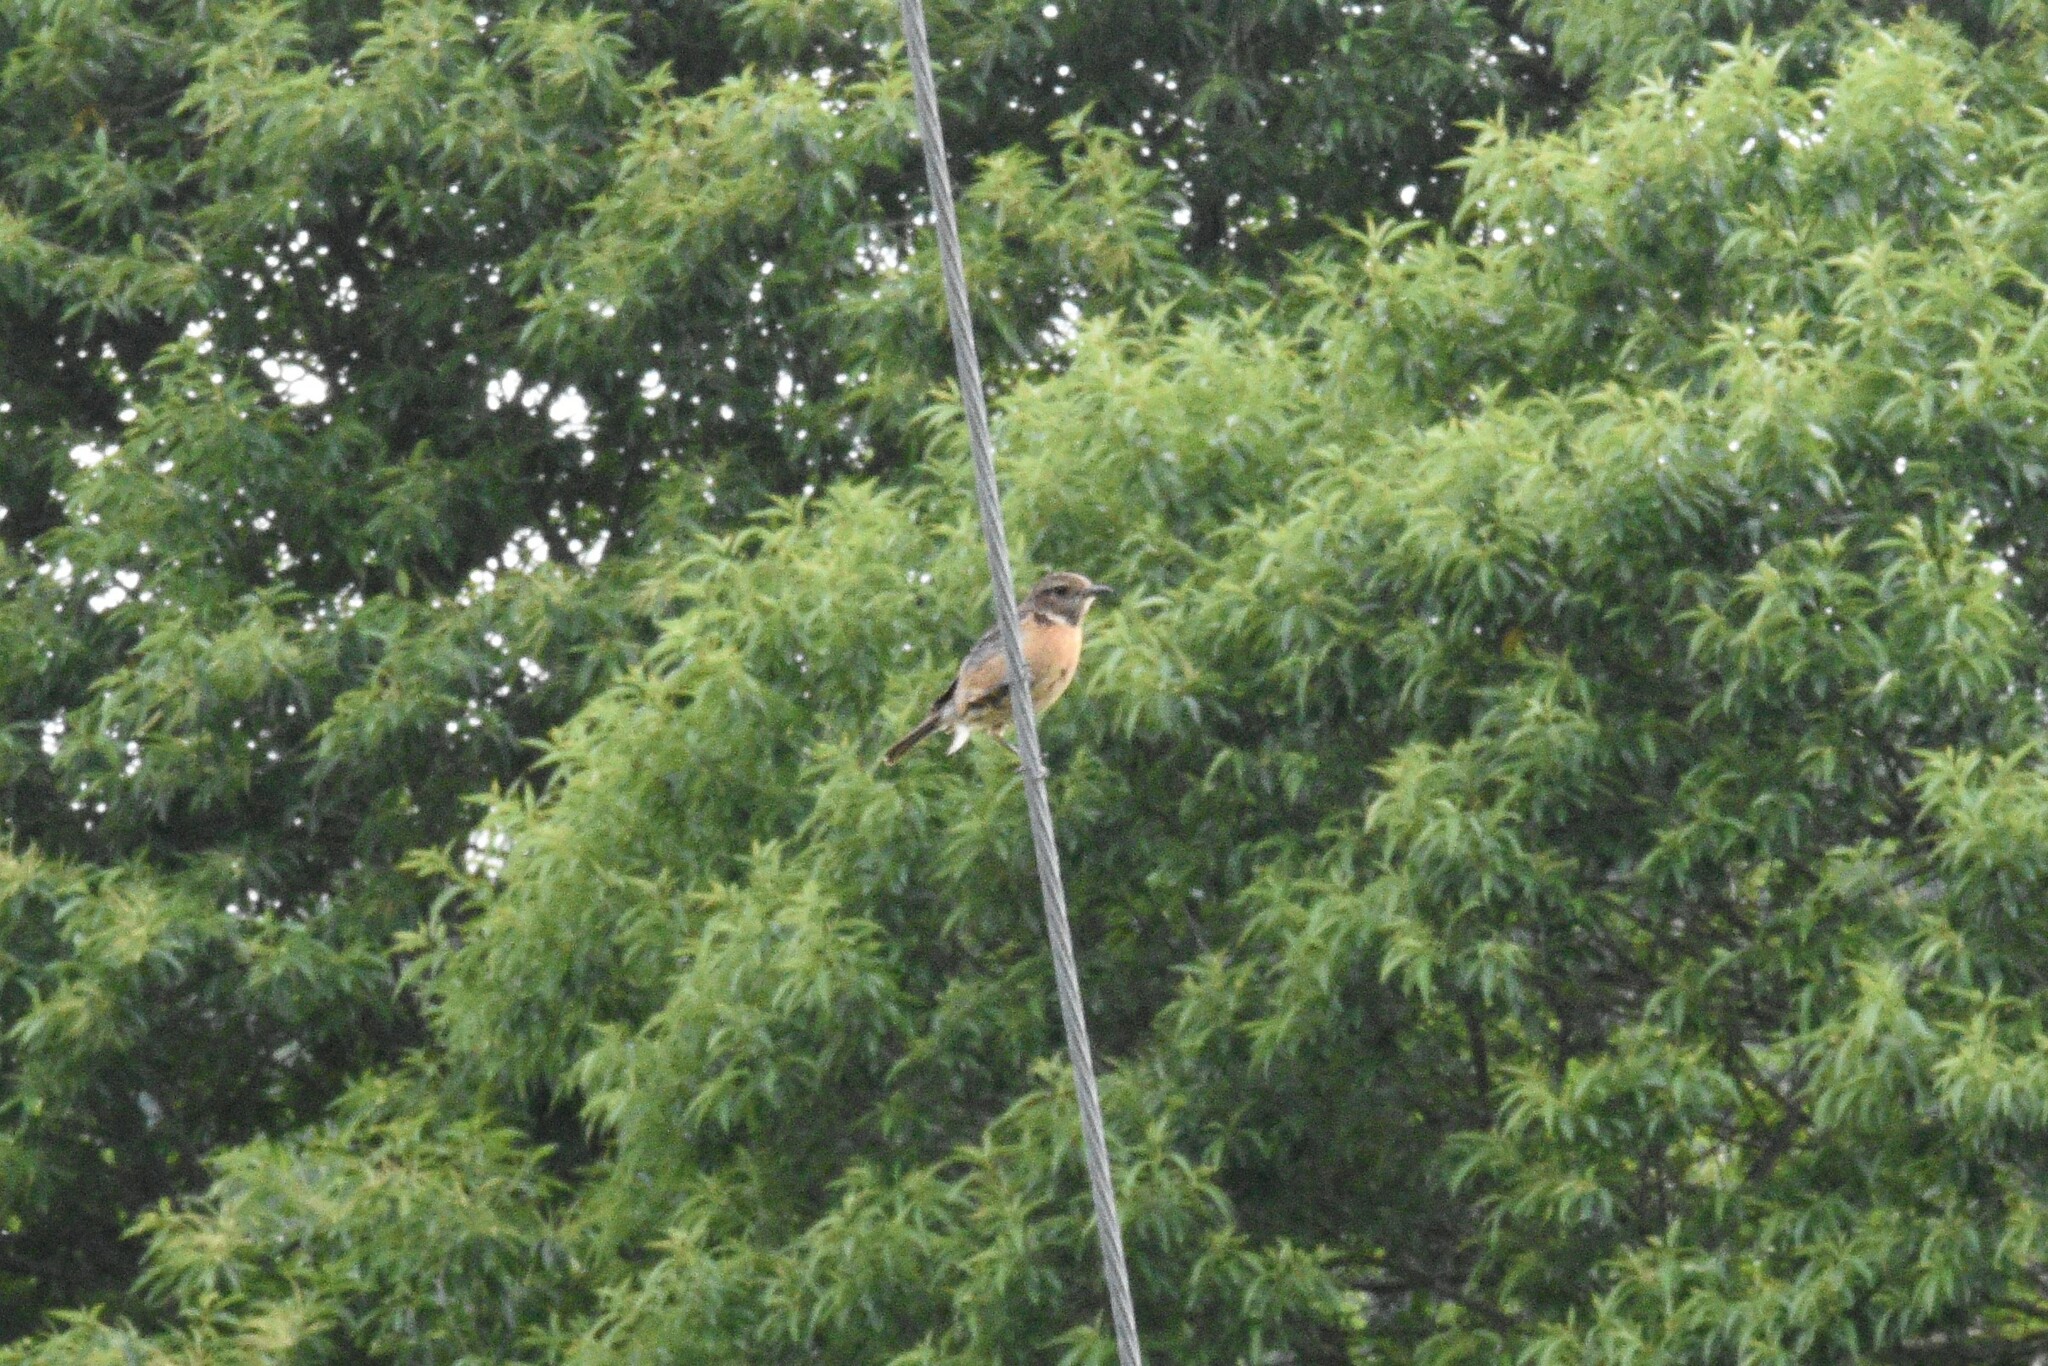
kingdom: Animalia
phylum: Chordata
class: Aves
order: Passeriformes
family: Muscicapidae
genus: Saxicola
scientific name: Saxicola rubicola
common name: European stonechat
